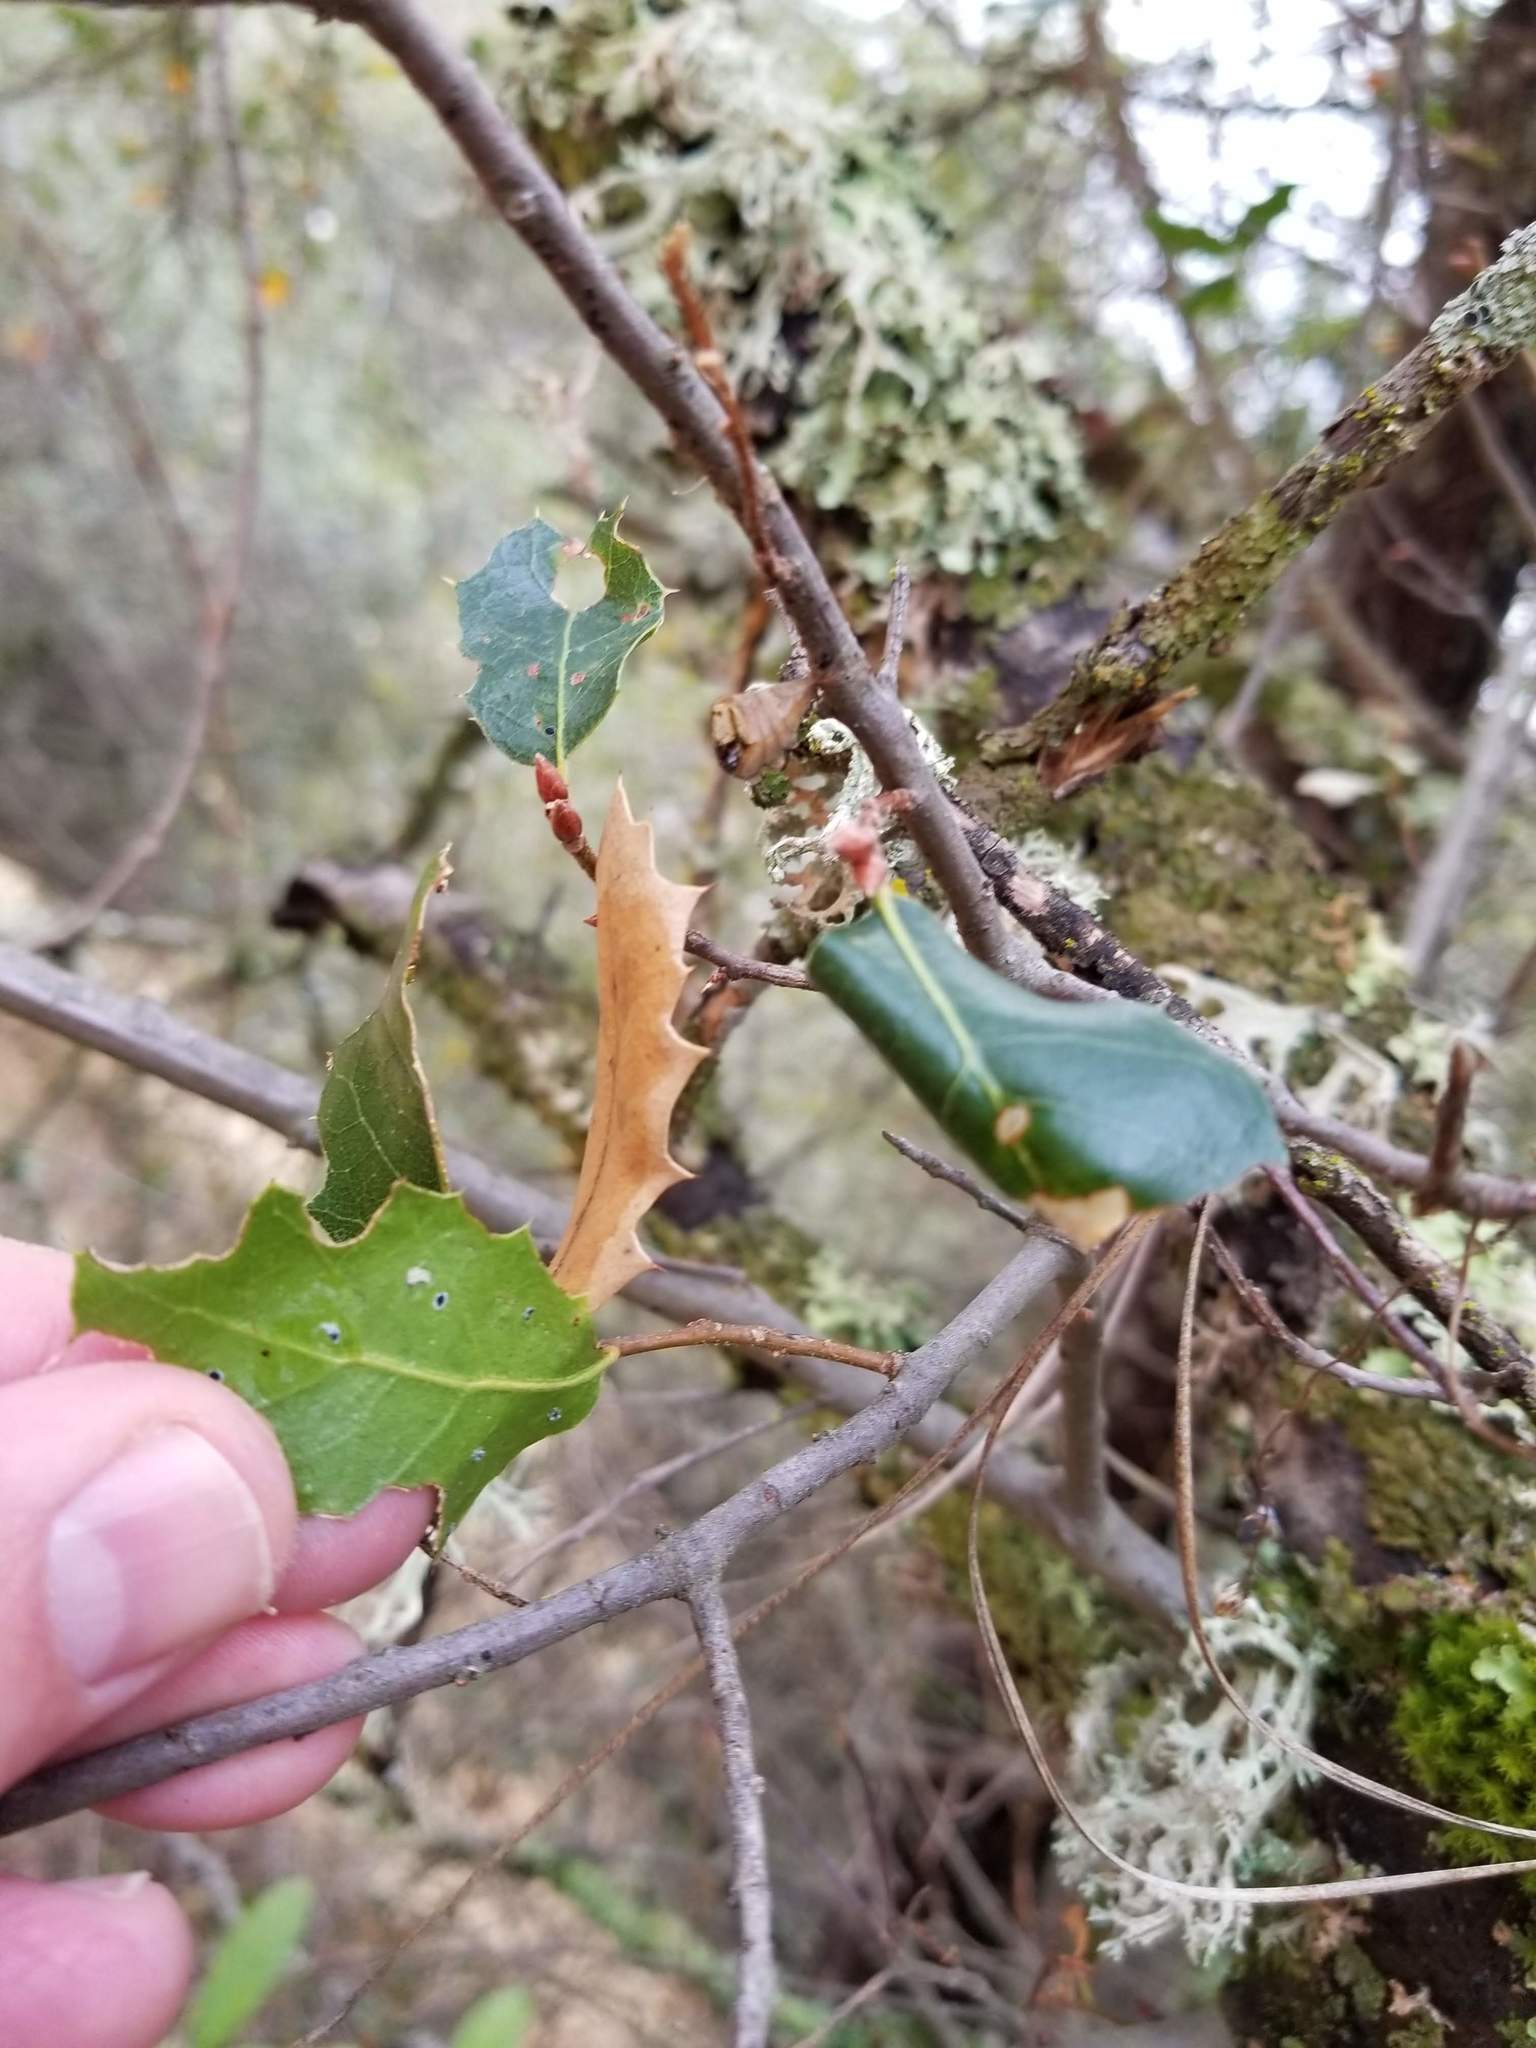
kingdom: Plantae
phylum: Tracheophyta
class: Magnoliopsida
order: Fagales
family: Fagaceae
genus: Quercus
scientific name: Quercus wislizeni
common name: Interior live oak
